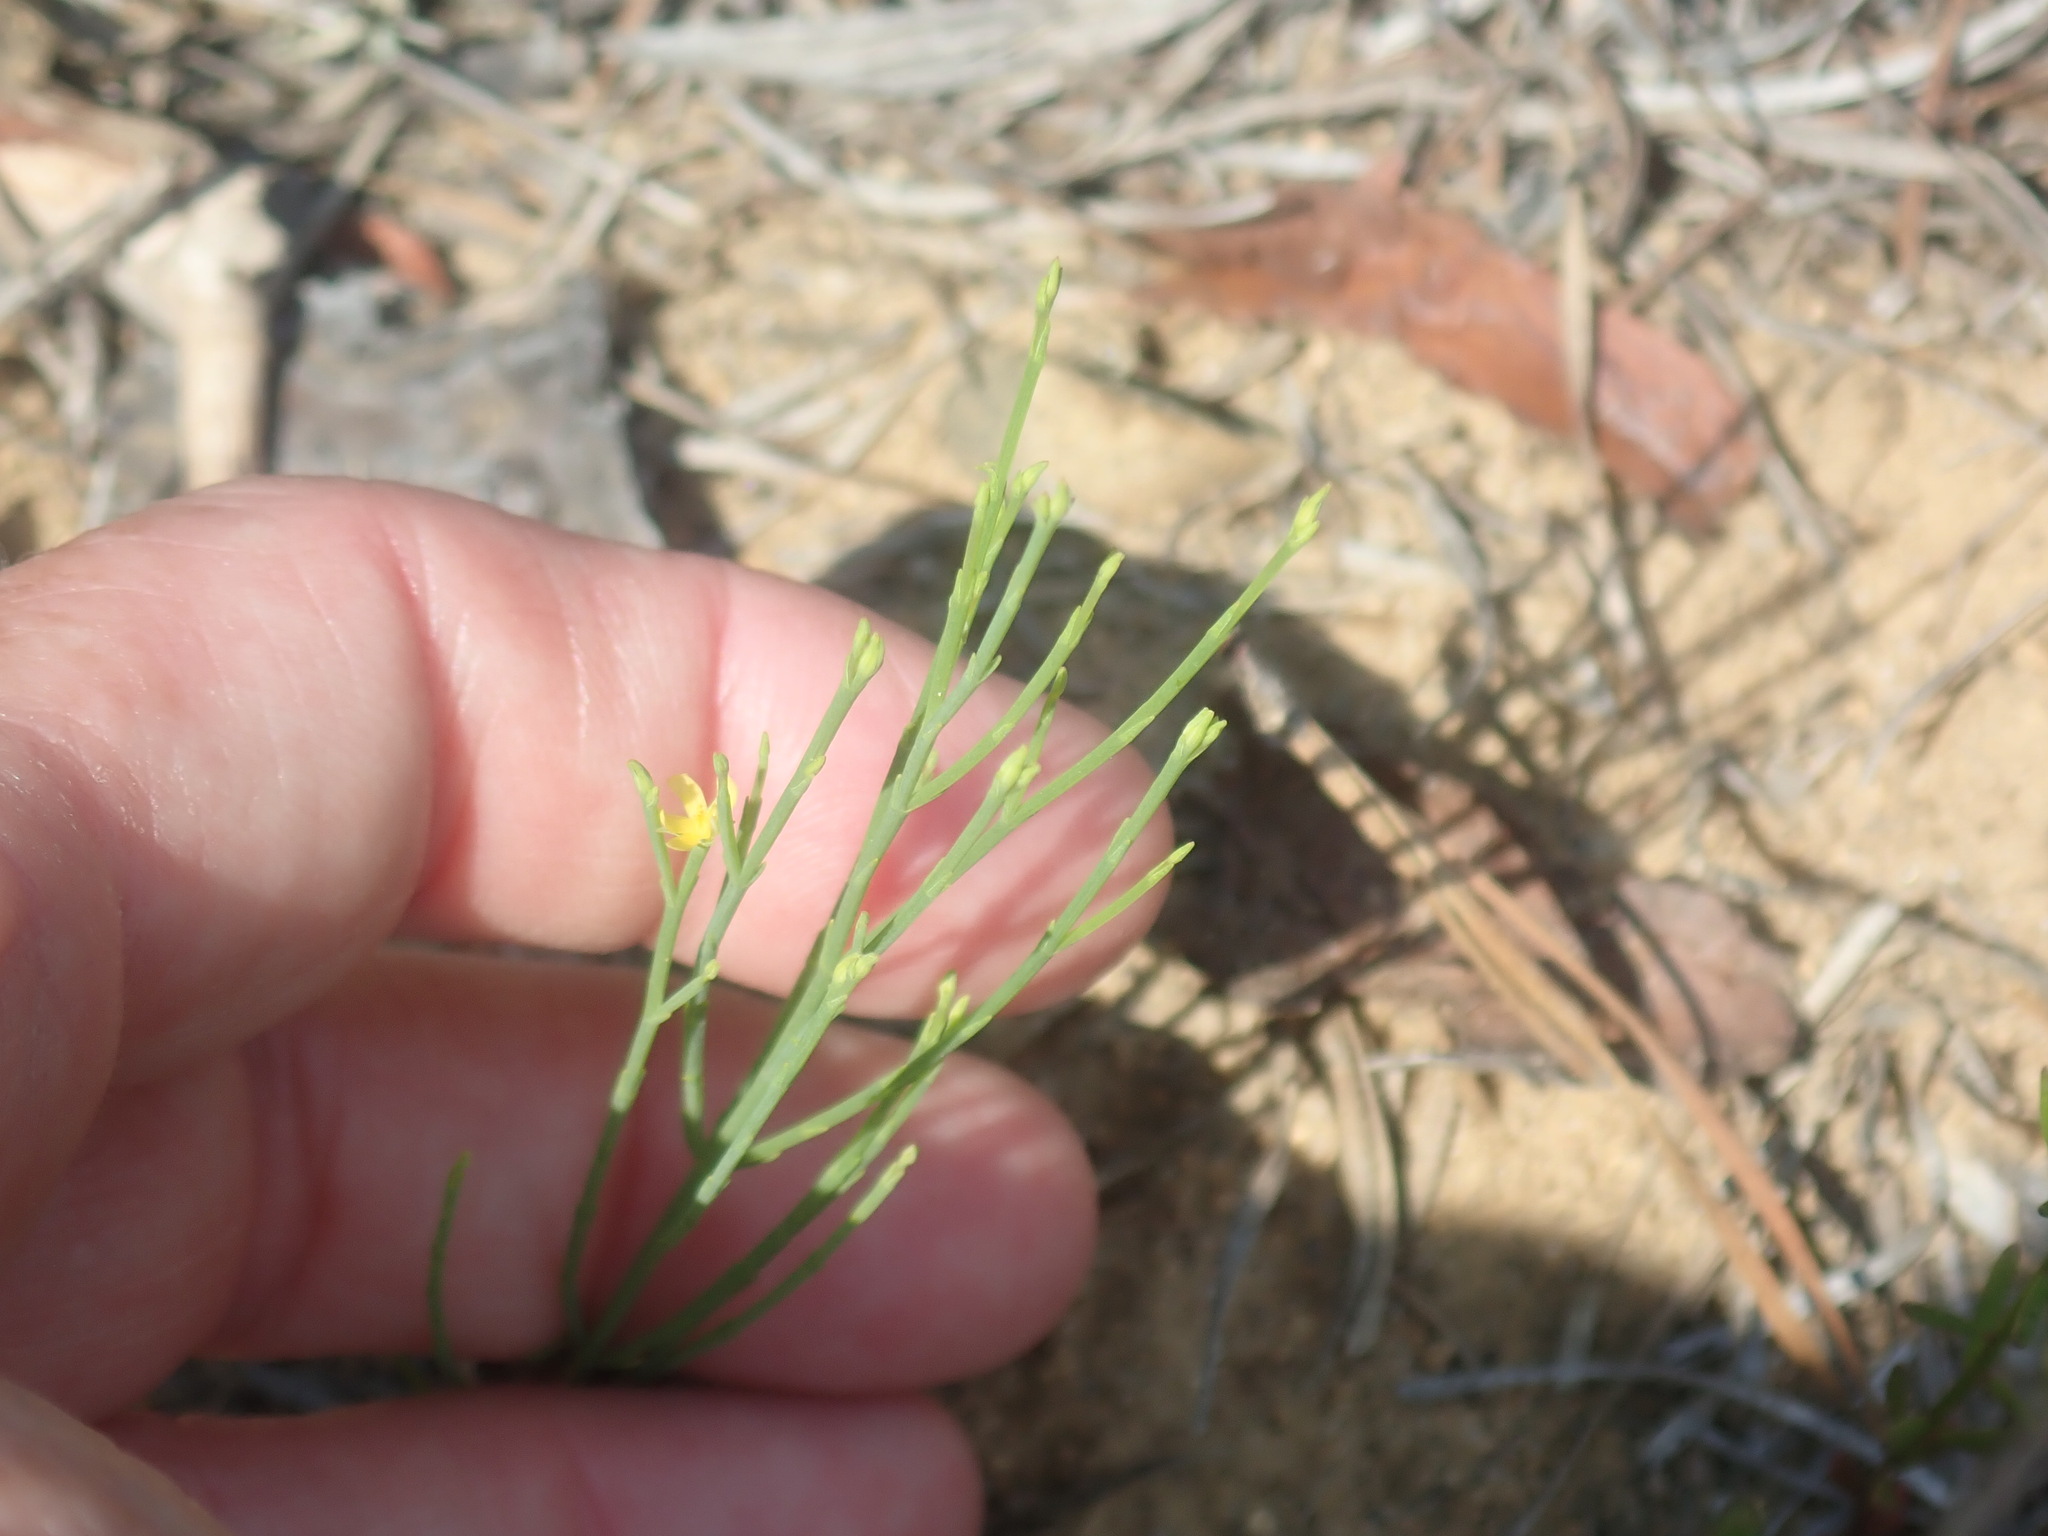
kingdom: Plantae
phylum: Tracheophyta
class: Magnoliopsida
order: Malpighiales
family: Hypericaceae
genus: Hypericum
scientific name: Hypericum gentianoides
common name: Gentian-leaved st. john's-wort
